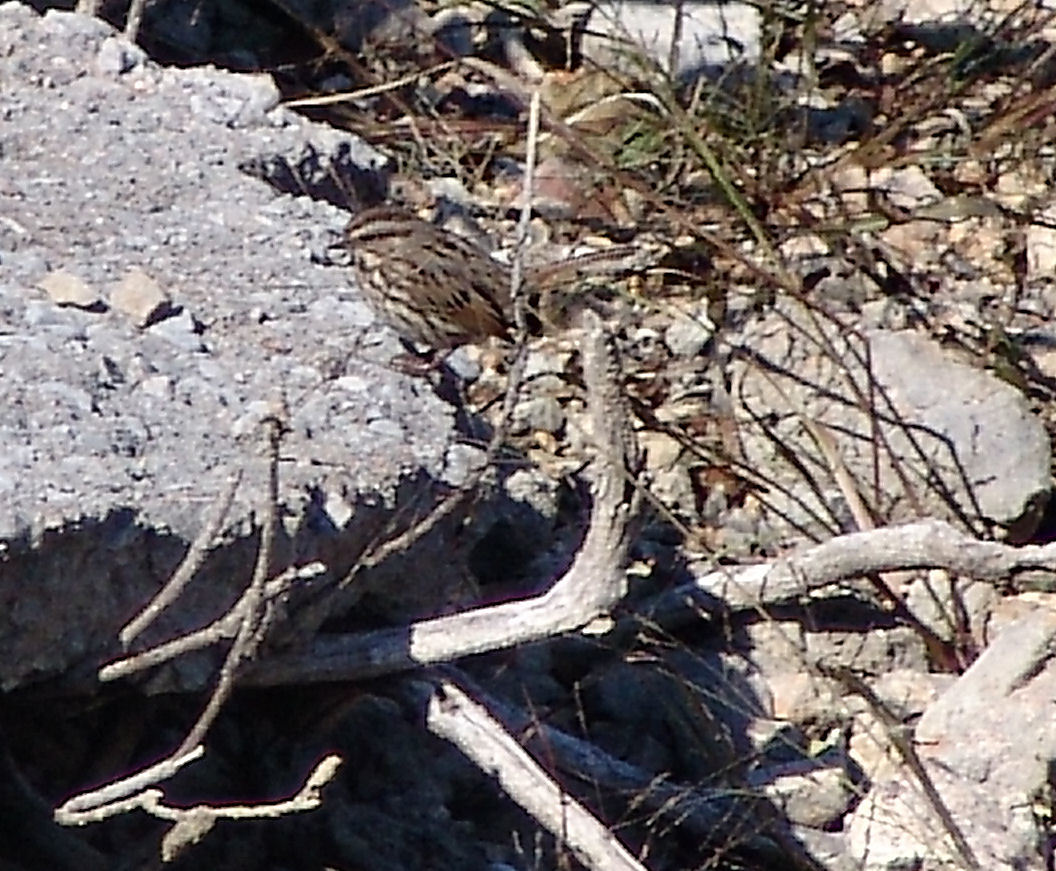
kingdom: Animalia
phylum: Chordata
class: Aves
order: Passeriformes
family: Passerellidae
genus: Melospiza
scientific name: Melospiza melodia
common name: Song sparrow
